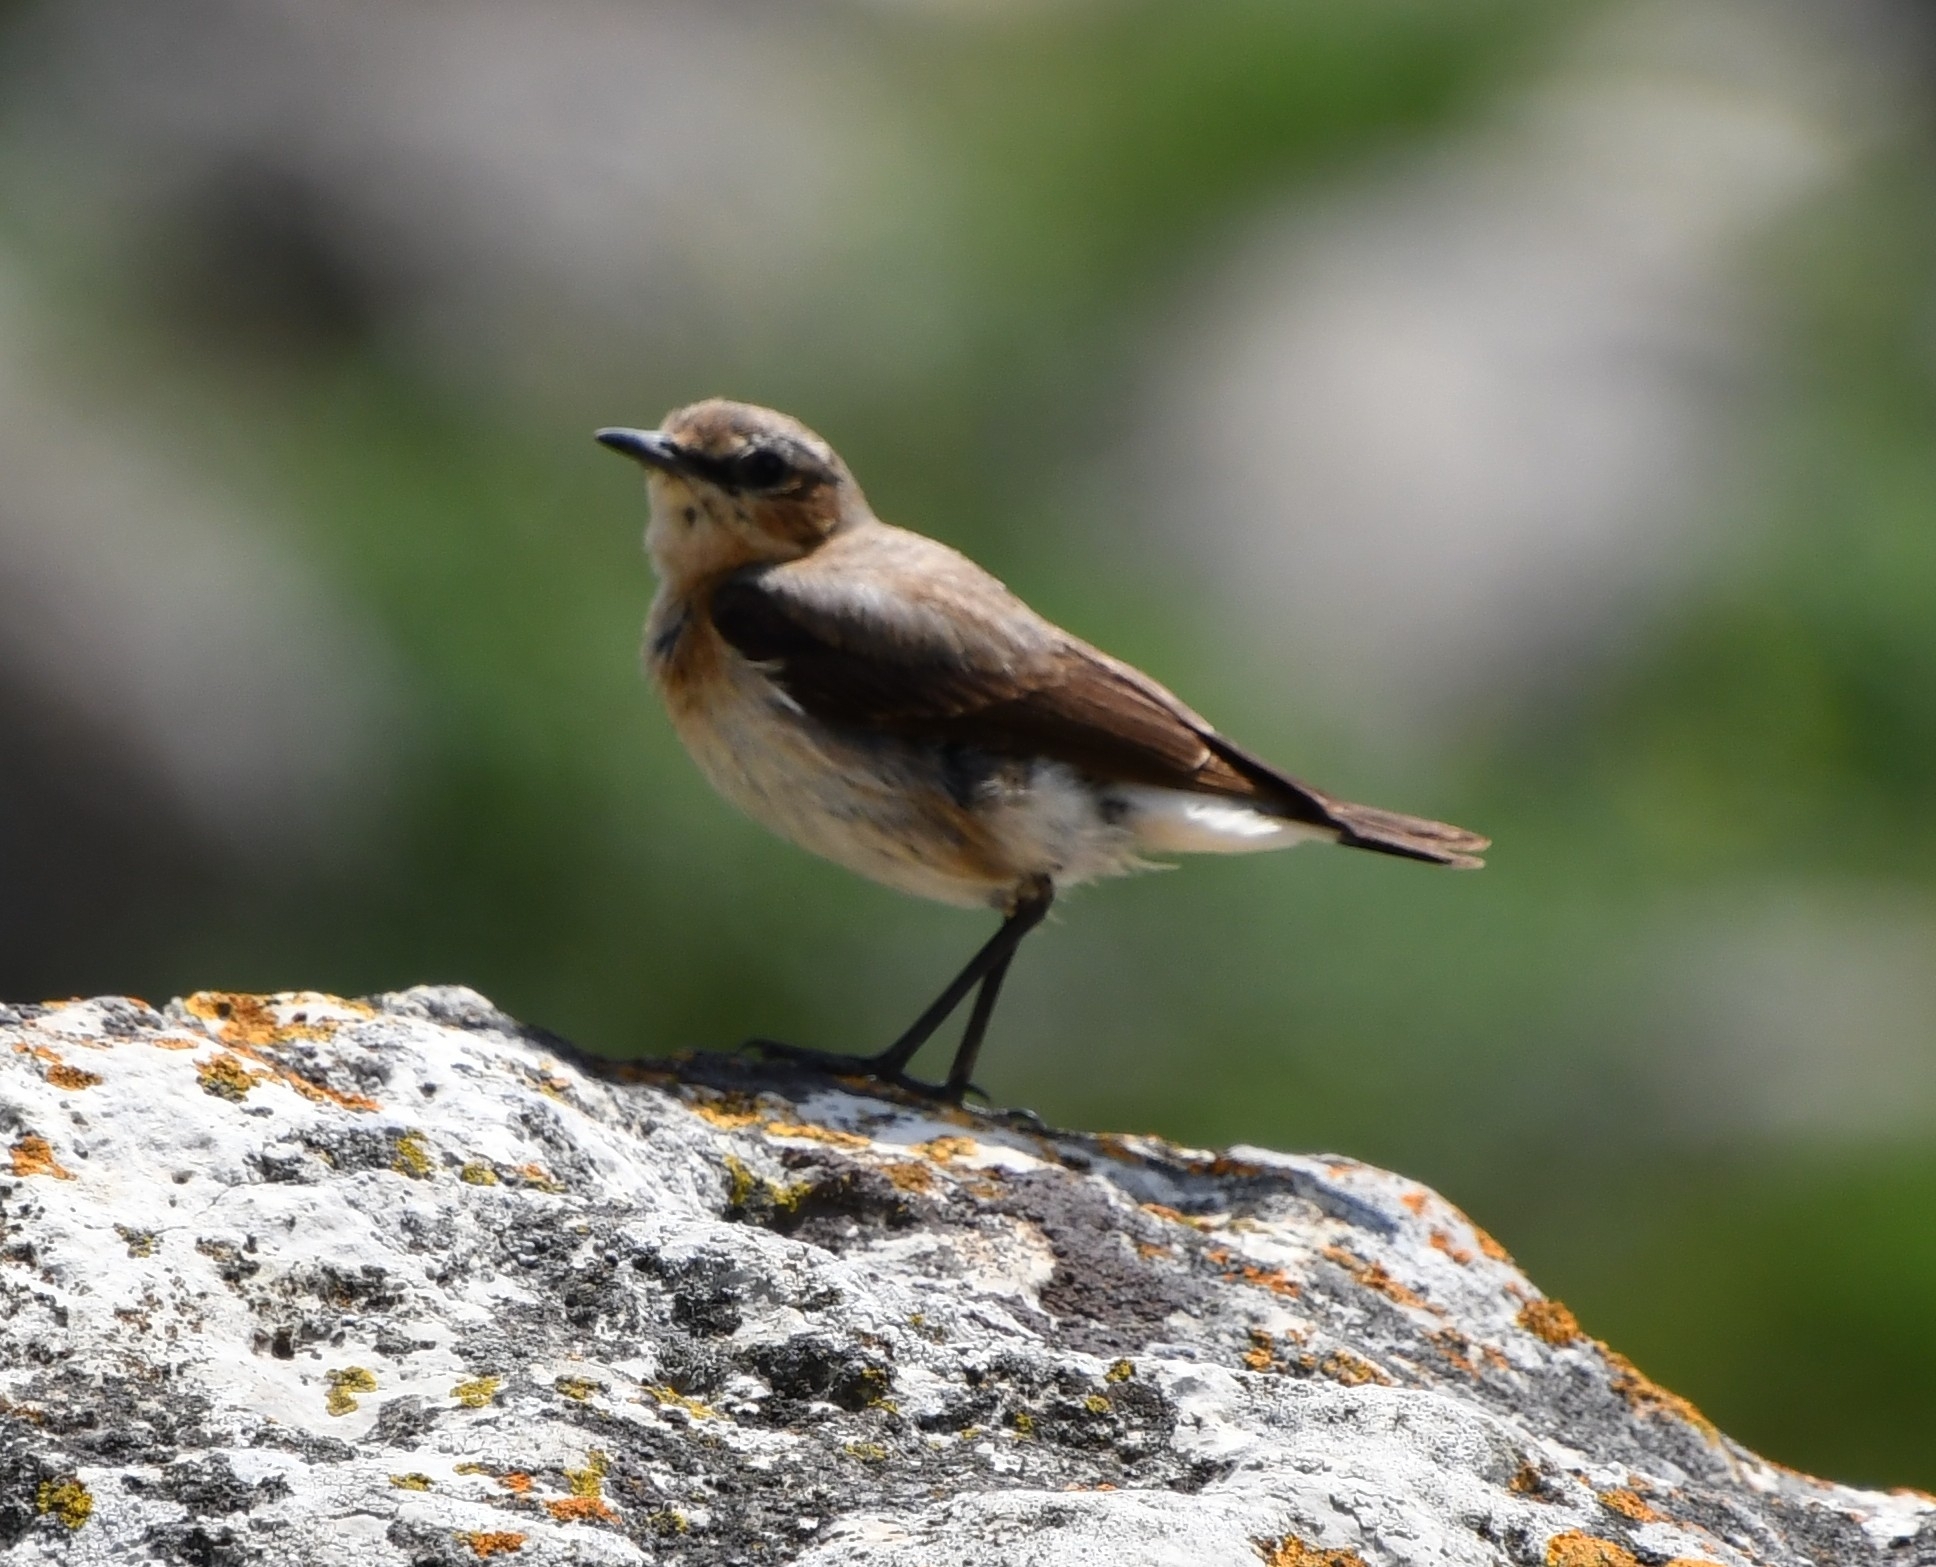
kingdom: Animalia
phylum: Chordata
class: Aves
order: Passeriformes
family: Muscicapidae
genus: Oenanthe
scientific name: Oenanthe oenanthe
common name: Northern wheatear
